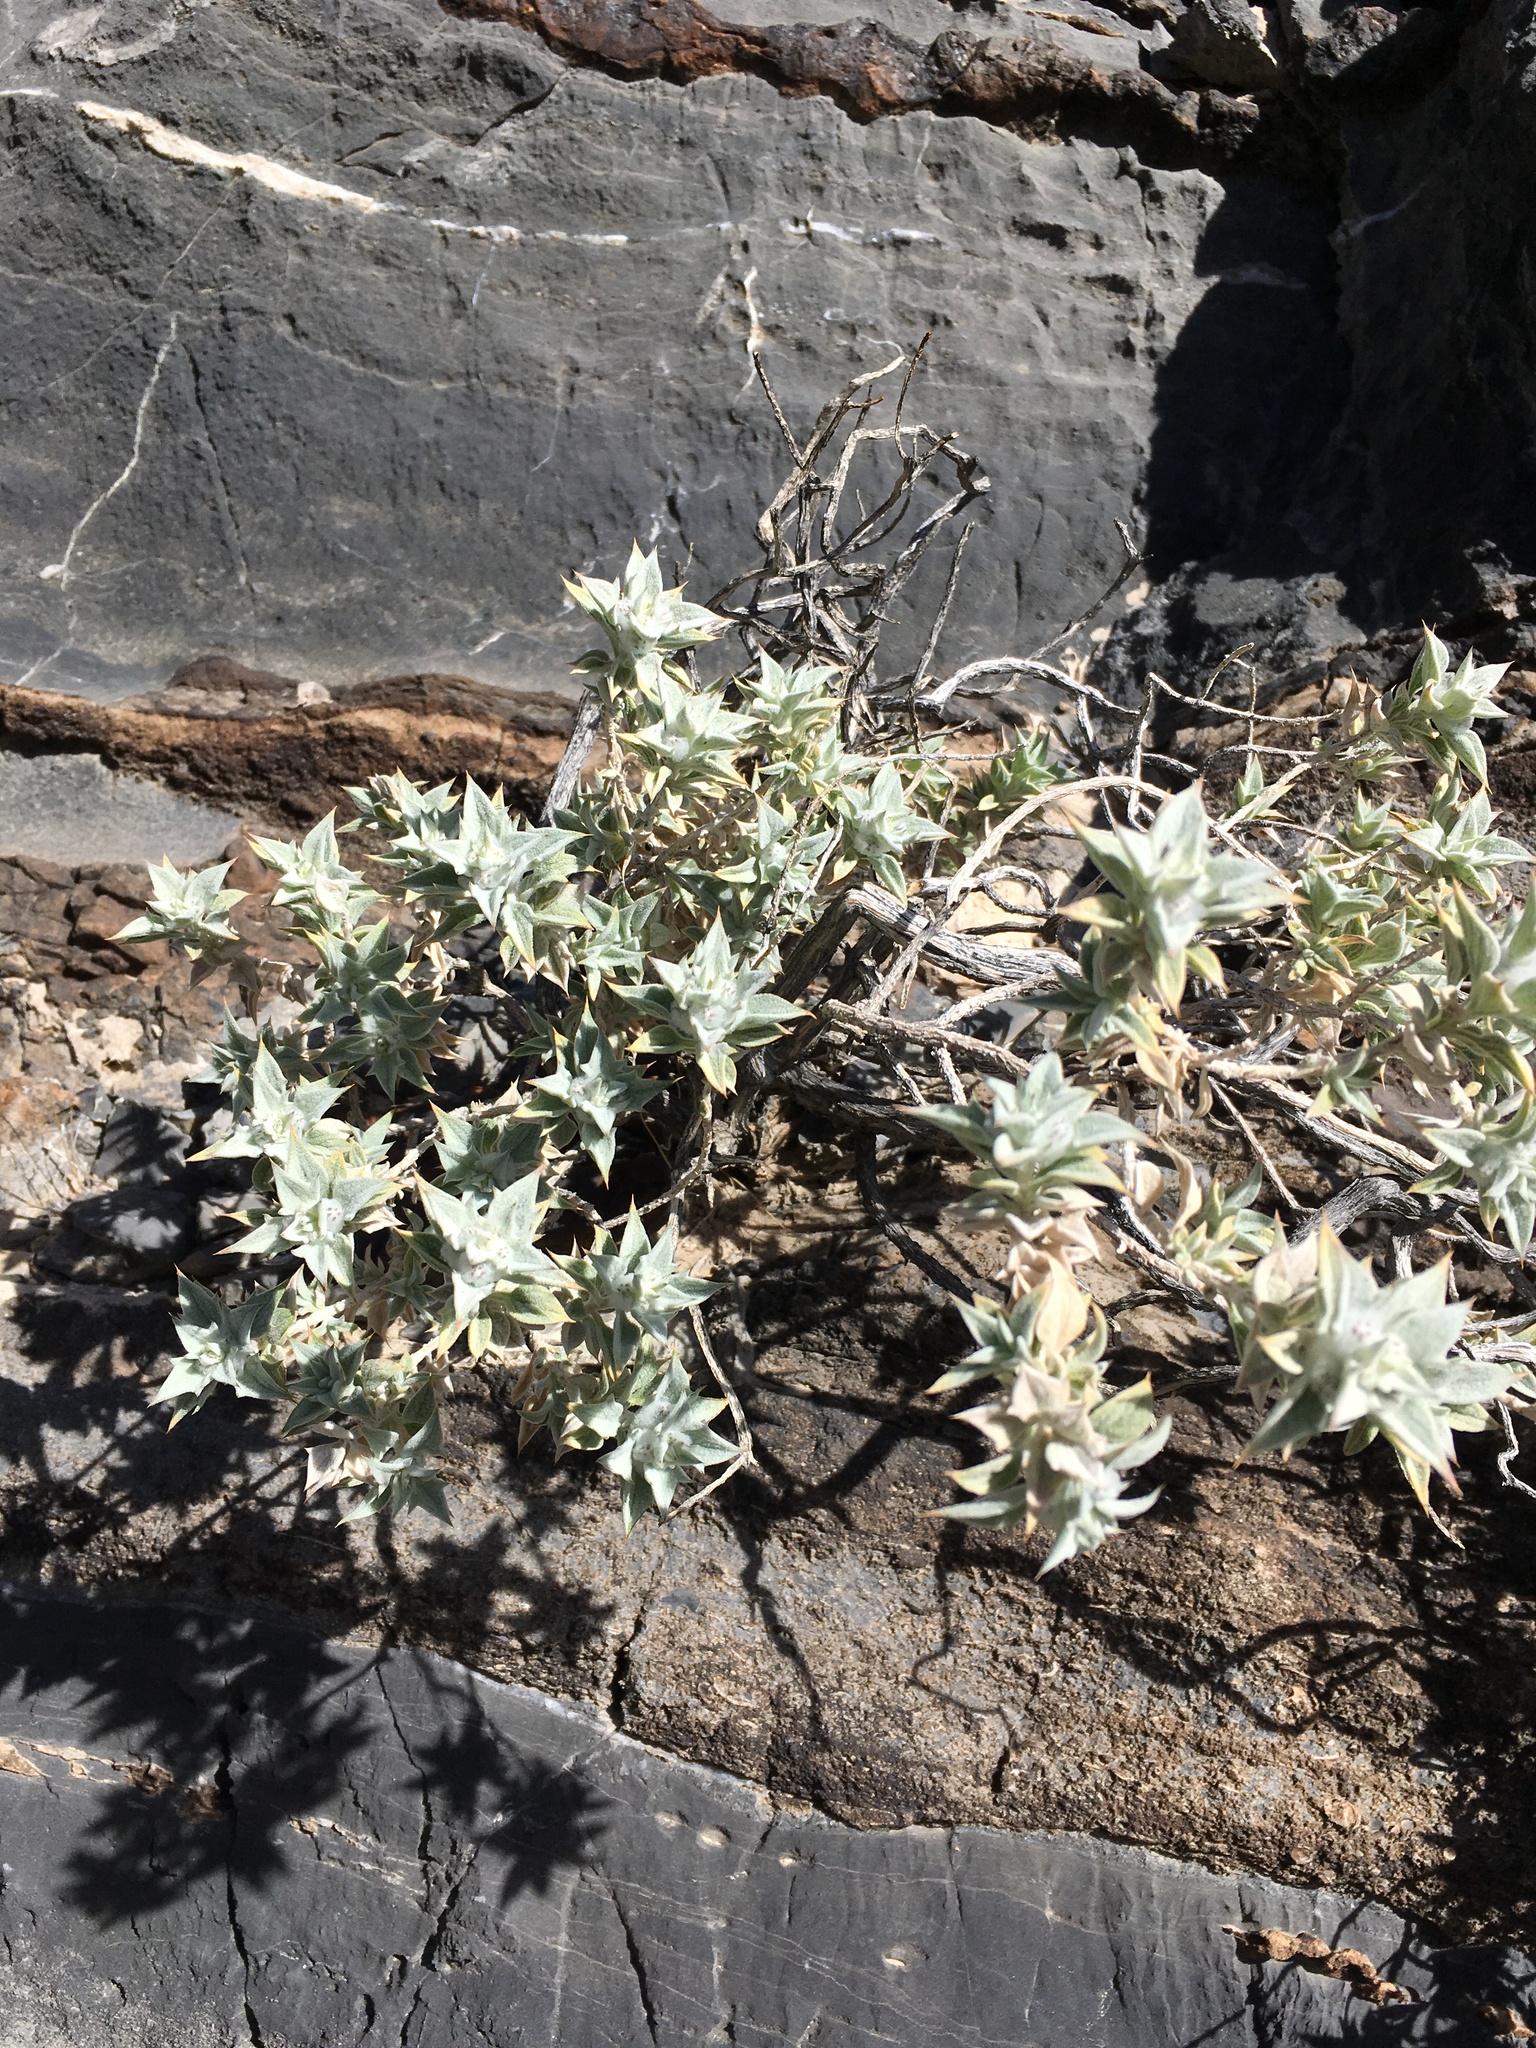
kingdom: Plantae
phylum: Tracheophyta
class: Magnoliopsida
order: Lamiales
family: Lamiaceae
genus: Salvia
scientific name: Salvia funerea
